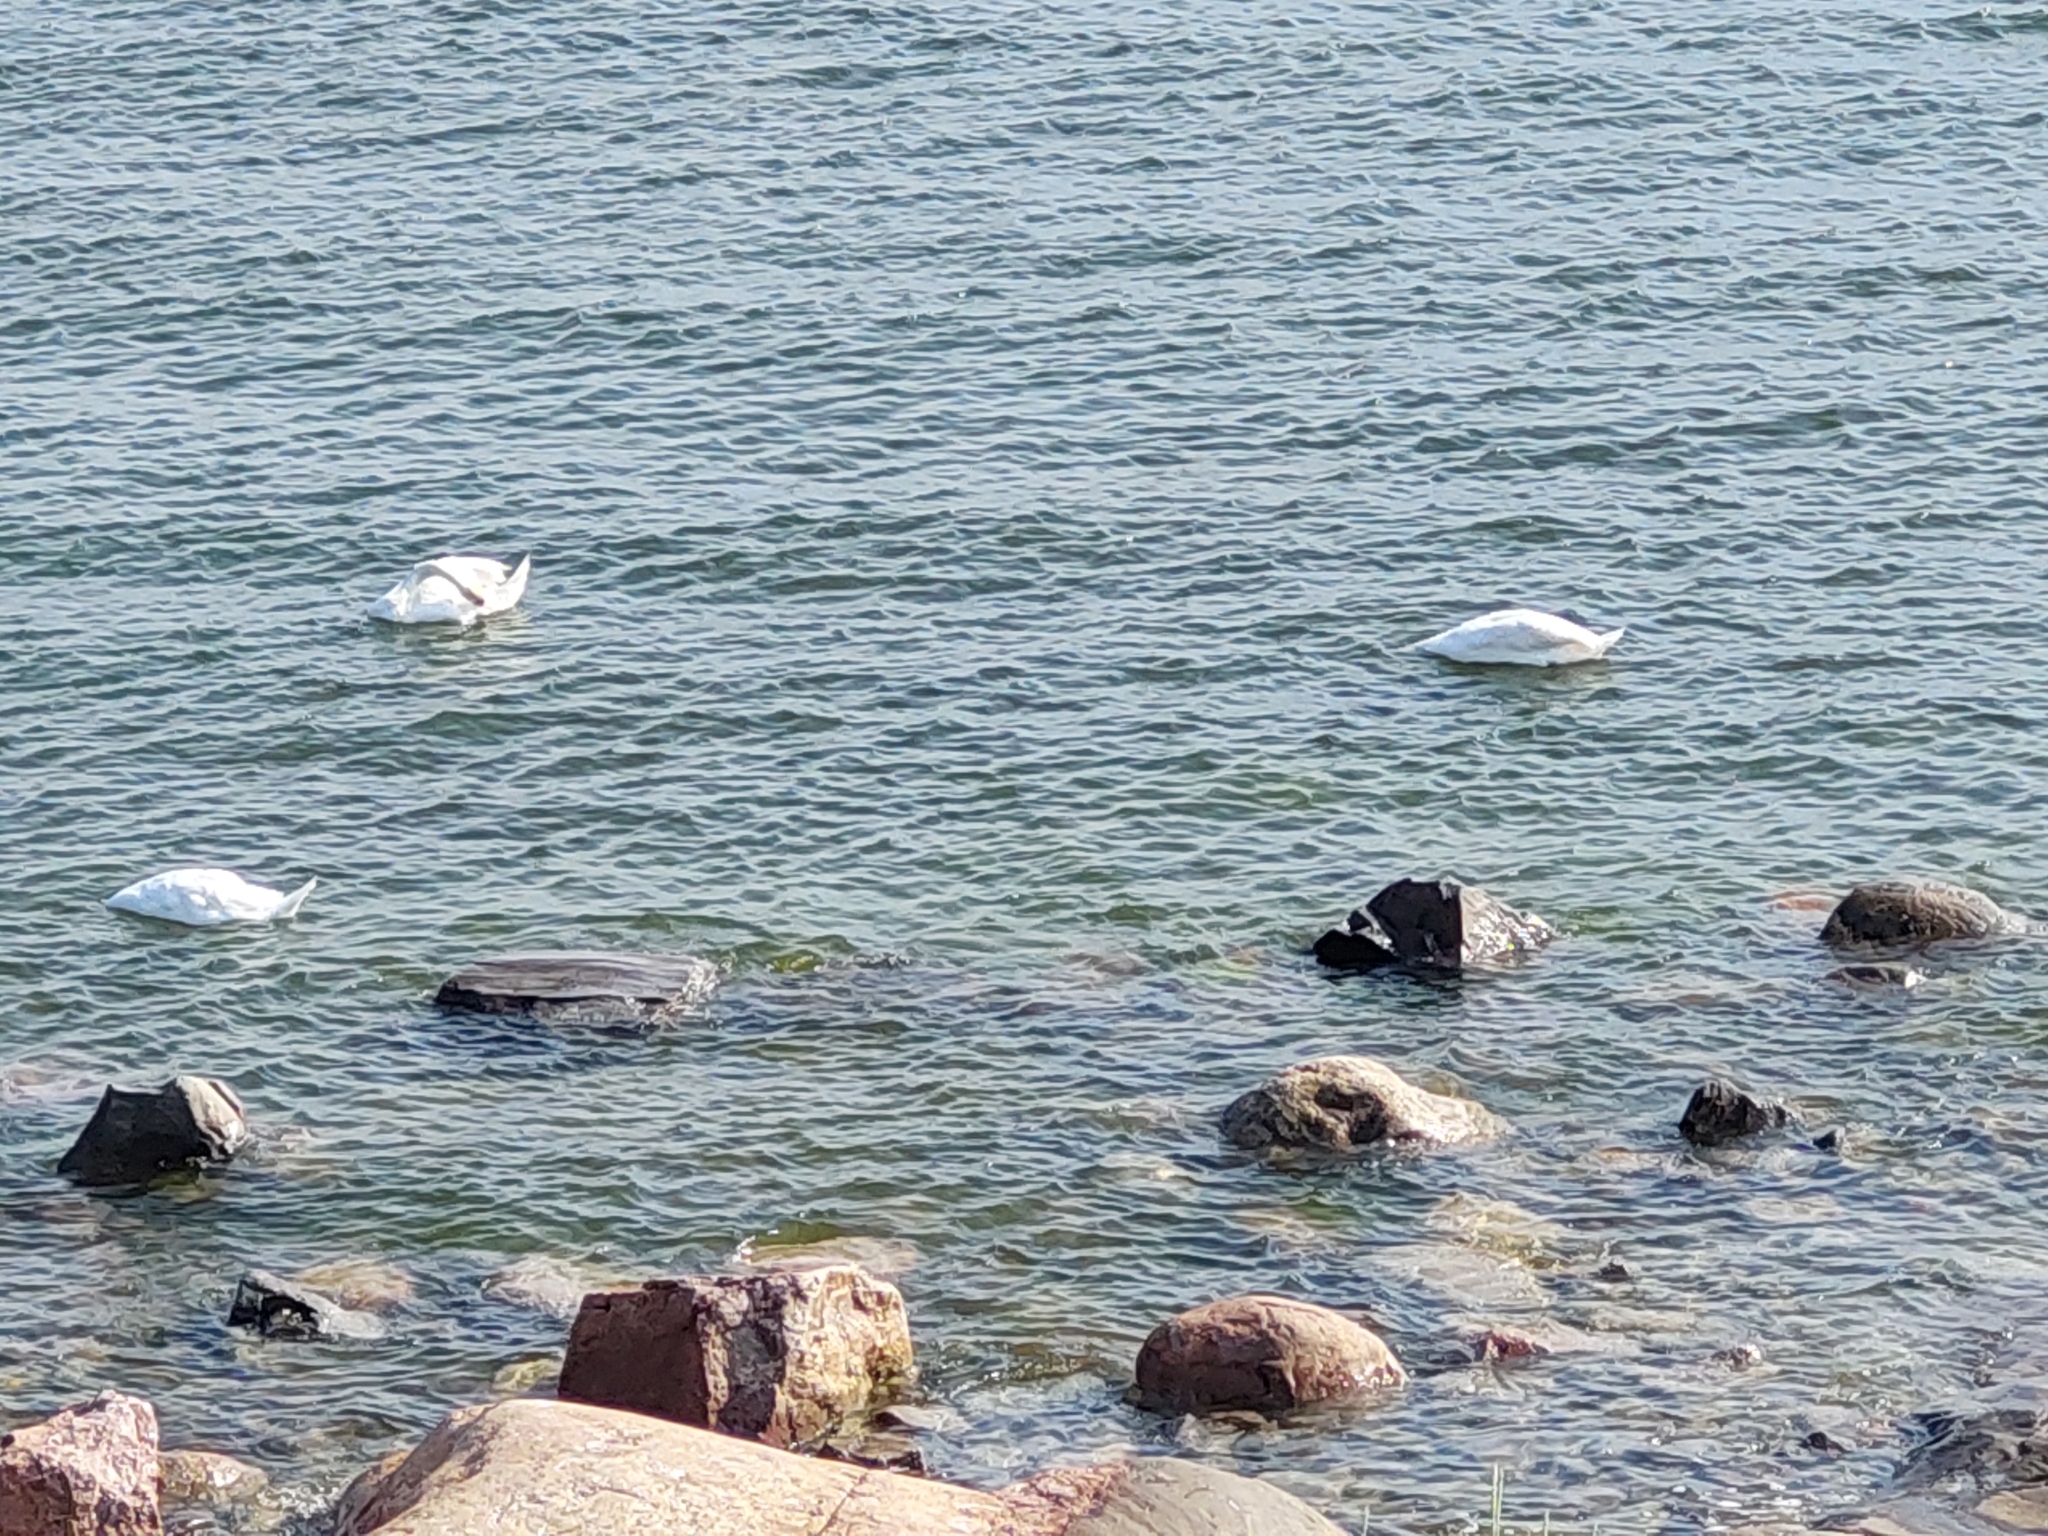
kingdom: Animalia
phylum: Chordata
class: Aves
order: Anseriformes
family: Anatidae
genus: Cygnus
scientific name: Cygnus olor
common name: Mute swan
